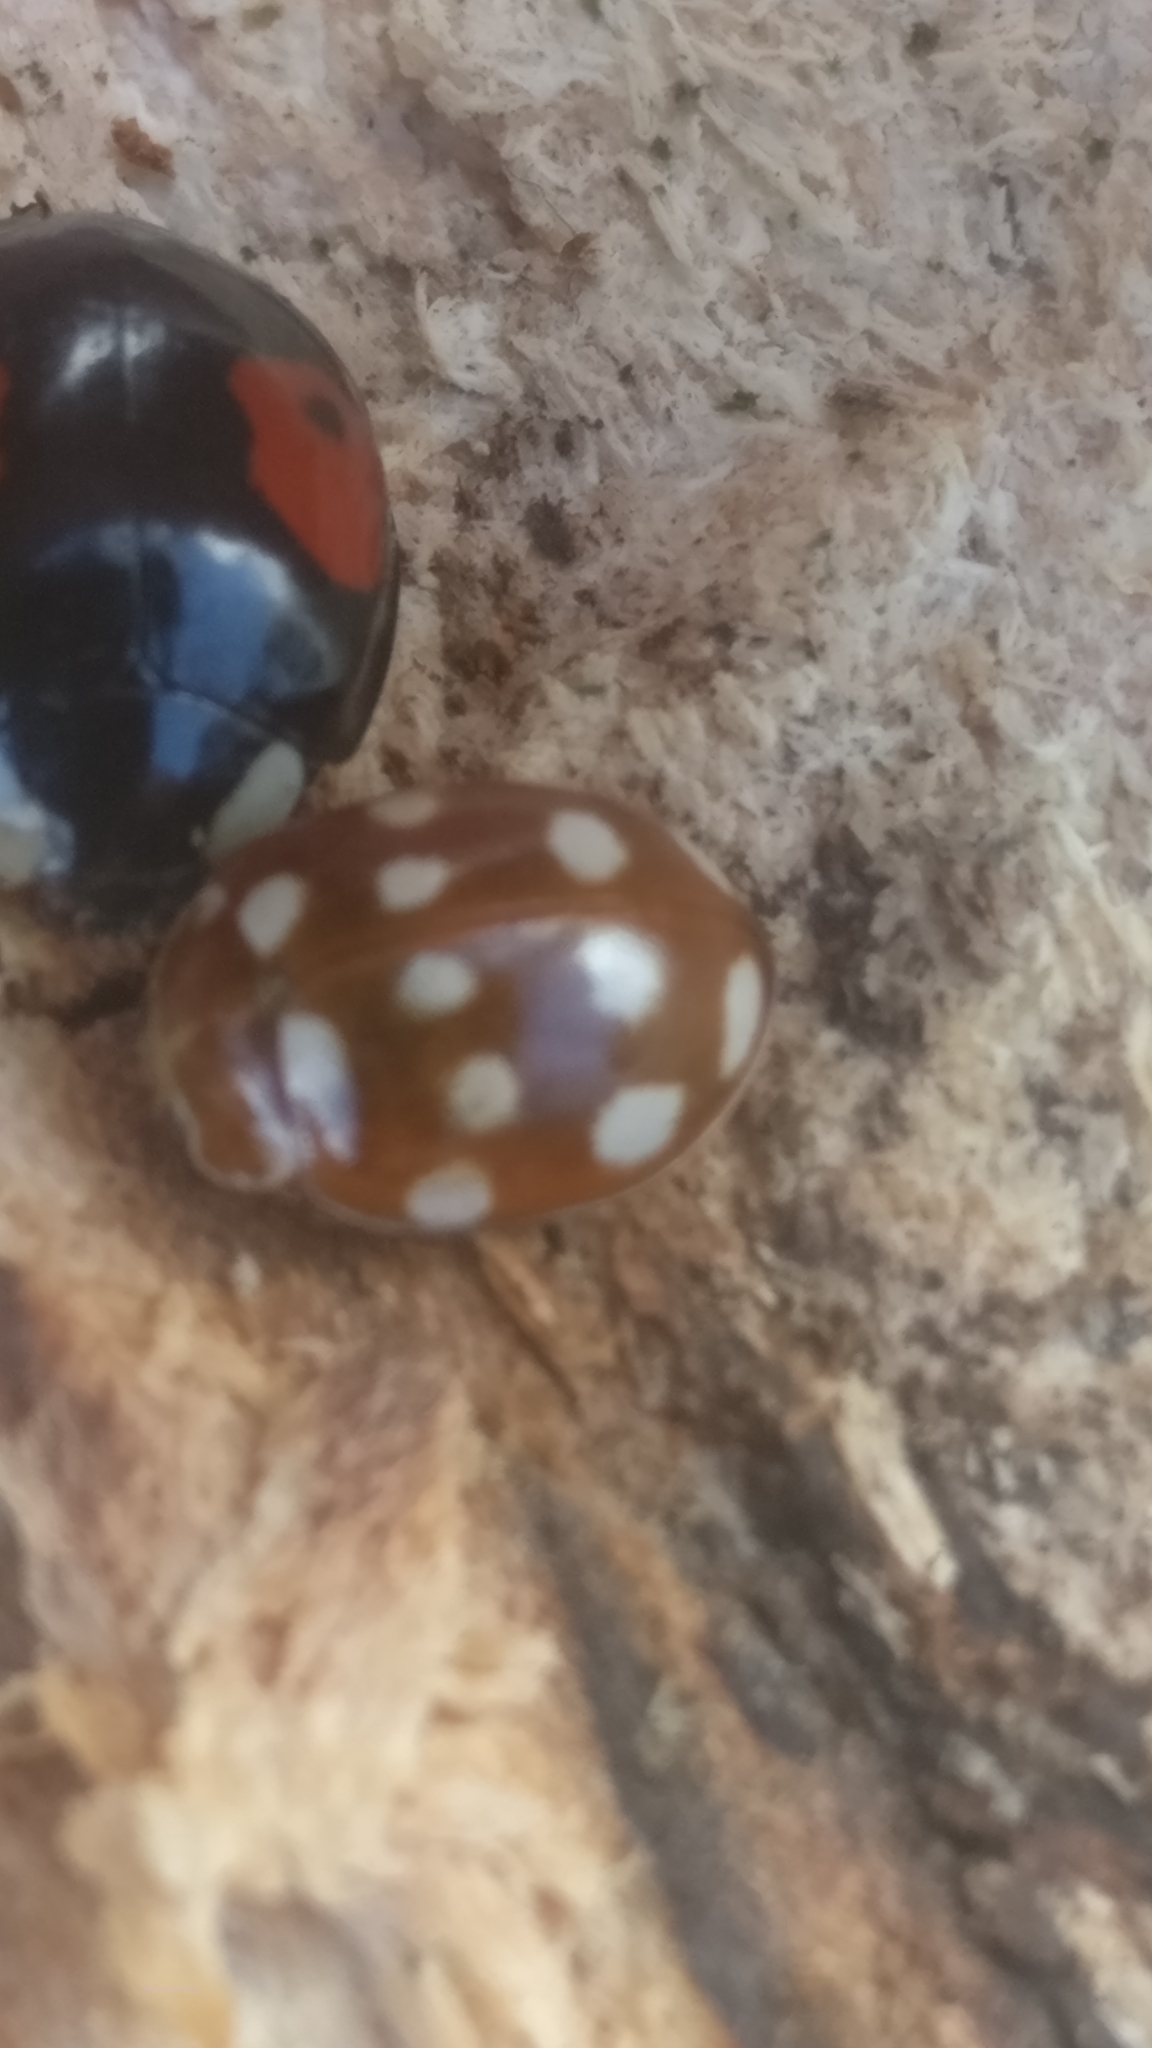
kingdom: Animalia
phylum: Arthropoda
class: Insecta
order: Coleoptera
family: Coccinellidae
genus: Calvia
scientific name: Calvia quatuordecimguttata
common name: Cream-spot ladybird
